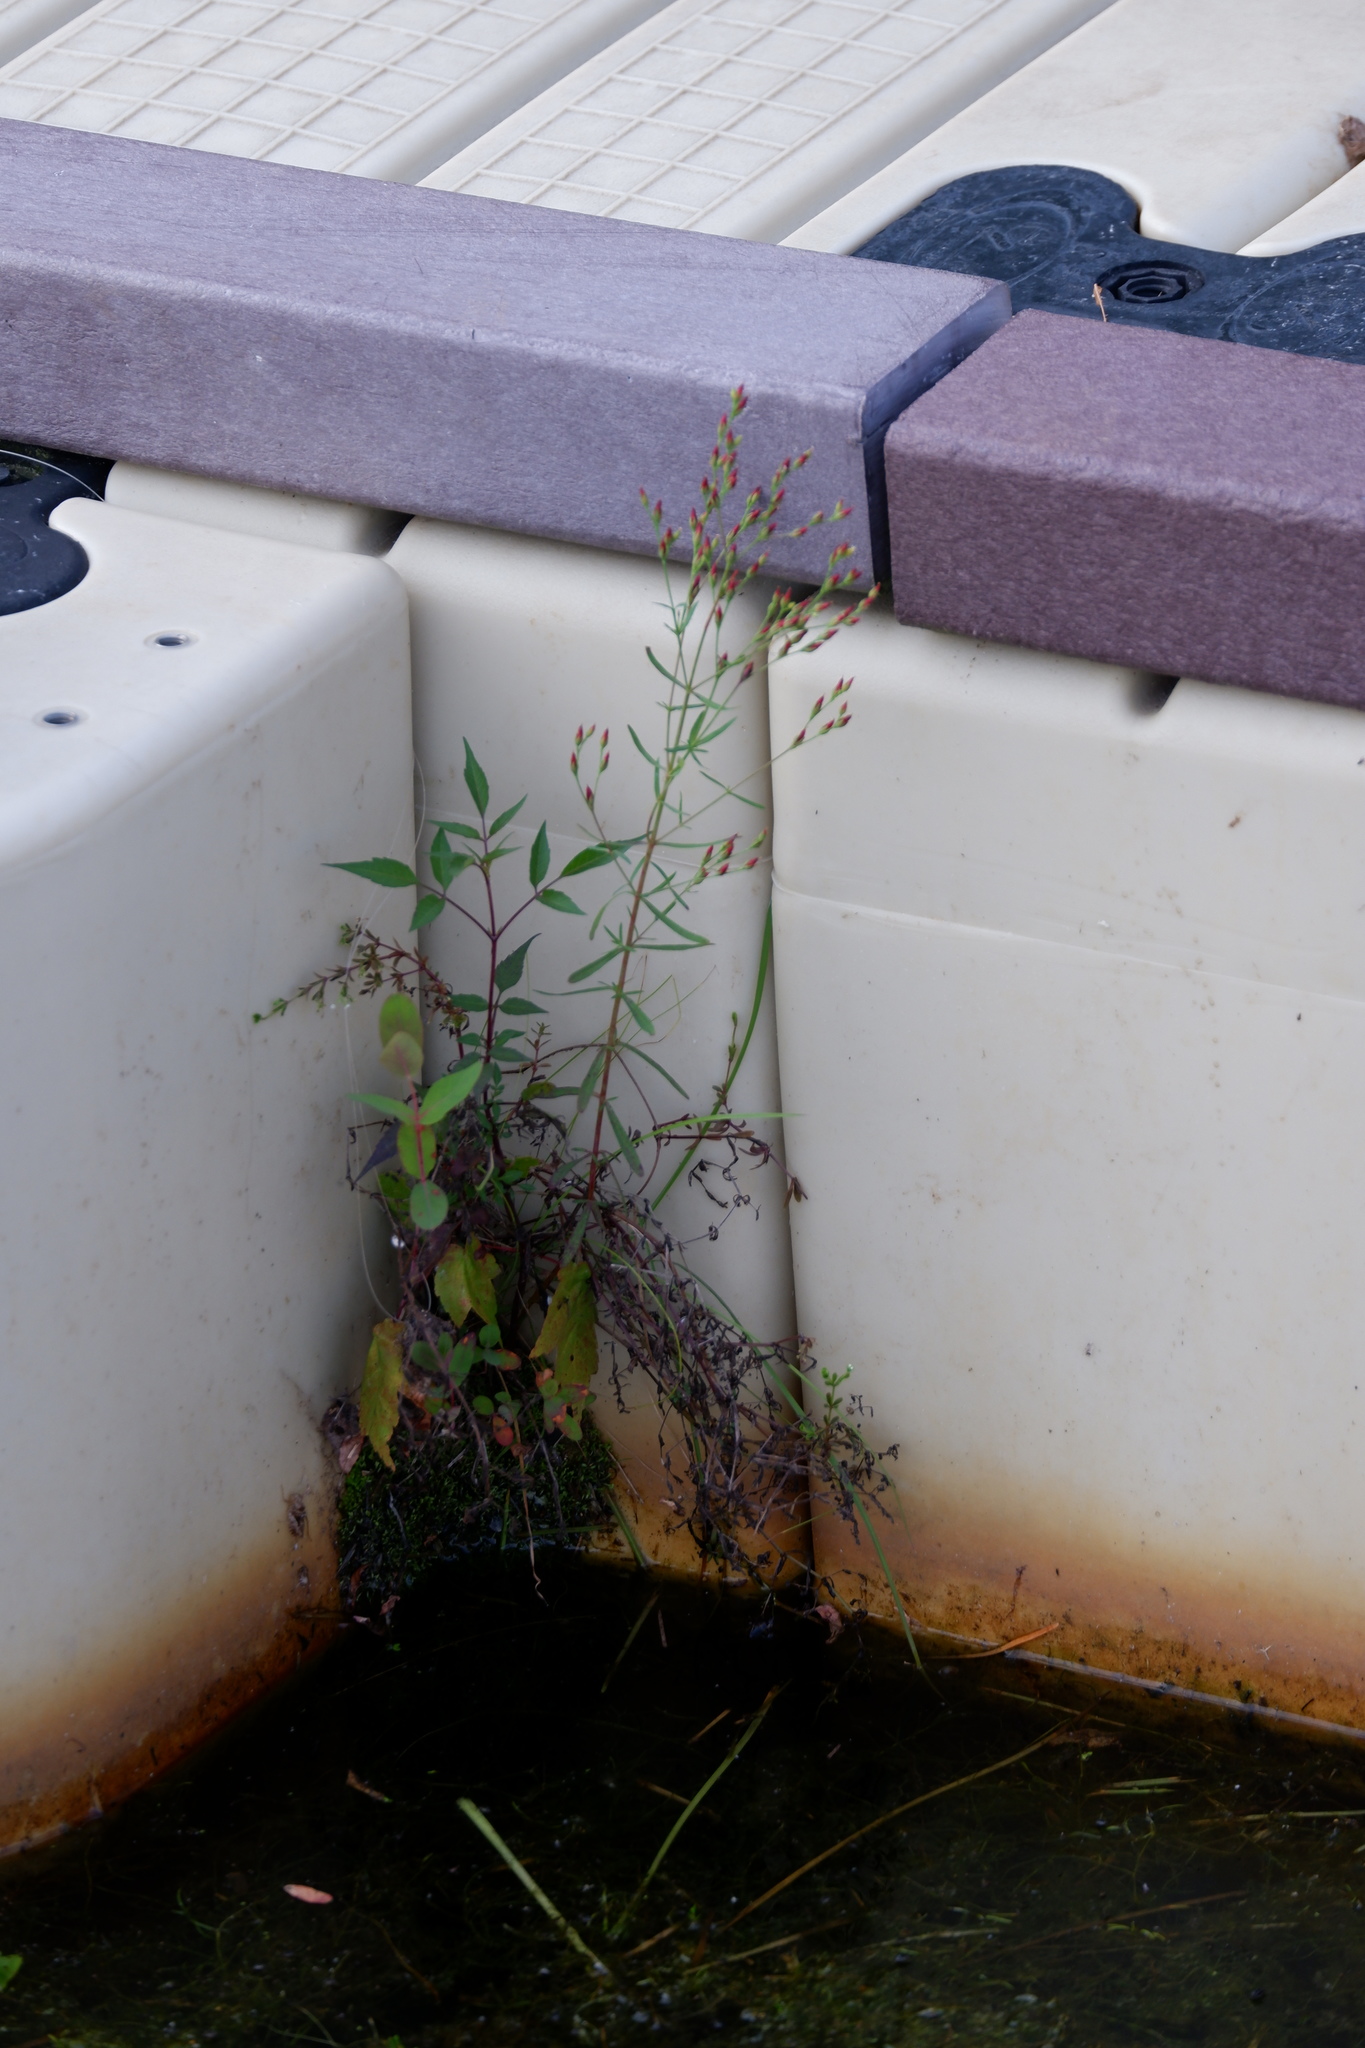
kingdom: Plantae
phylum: Tracheophyta
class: Magnoliopsida
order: Malpighiales
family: Hypericaceae
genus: Hypericum
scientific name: Hypericum canadense
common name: Irish st. john's-wort
